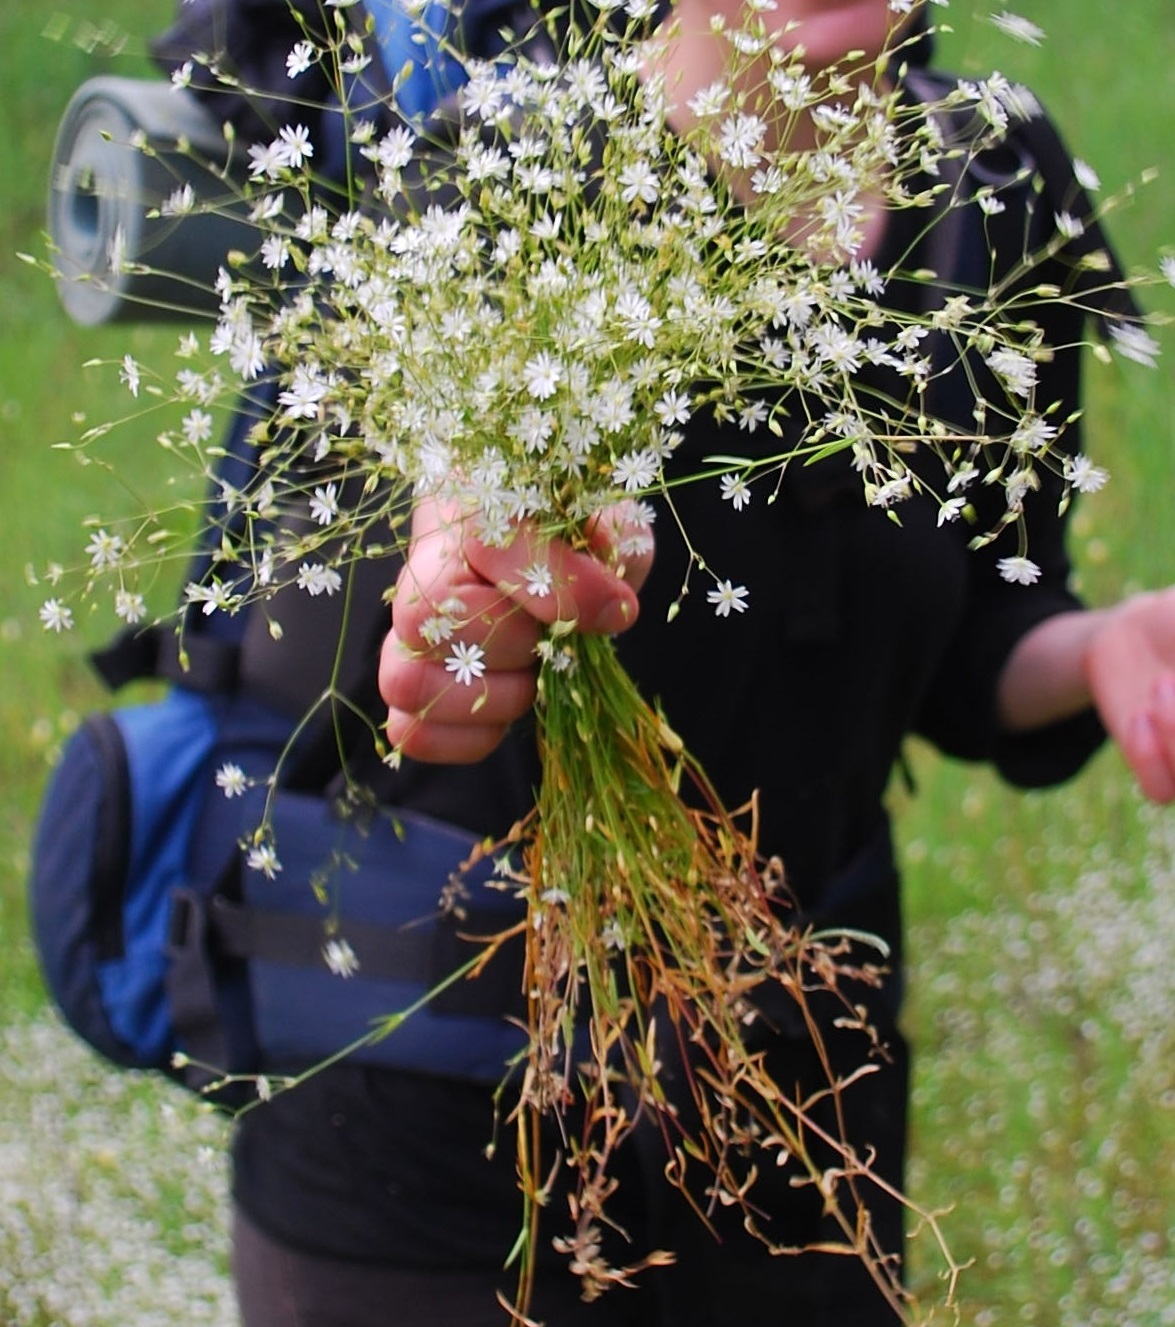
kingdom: Plantae
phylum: Tracheophyta
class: Magnoliopsida
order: Caryophyllales
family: Caryophyllaceae
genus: Stellaria
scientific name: Stellaria graminea
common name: Grass-like starwort
